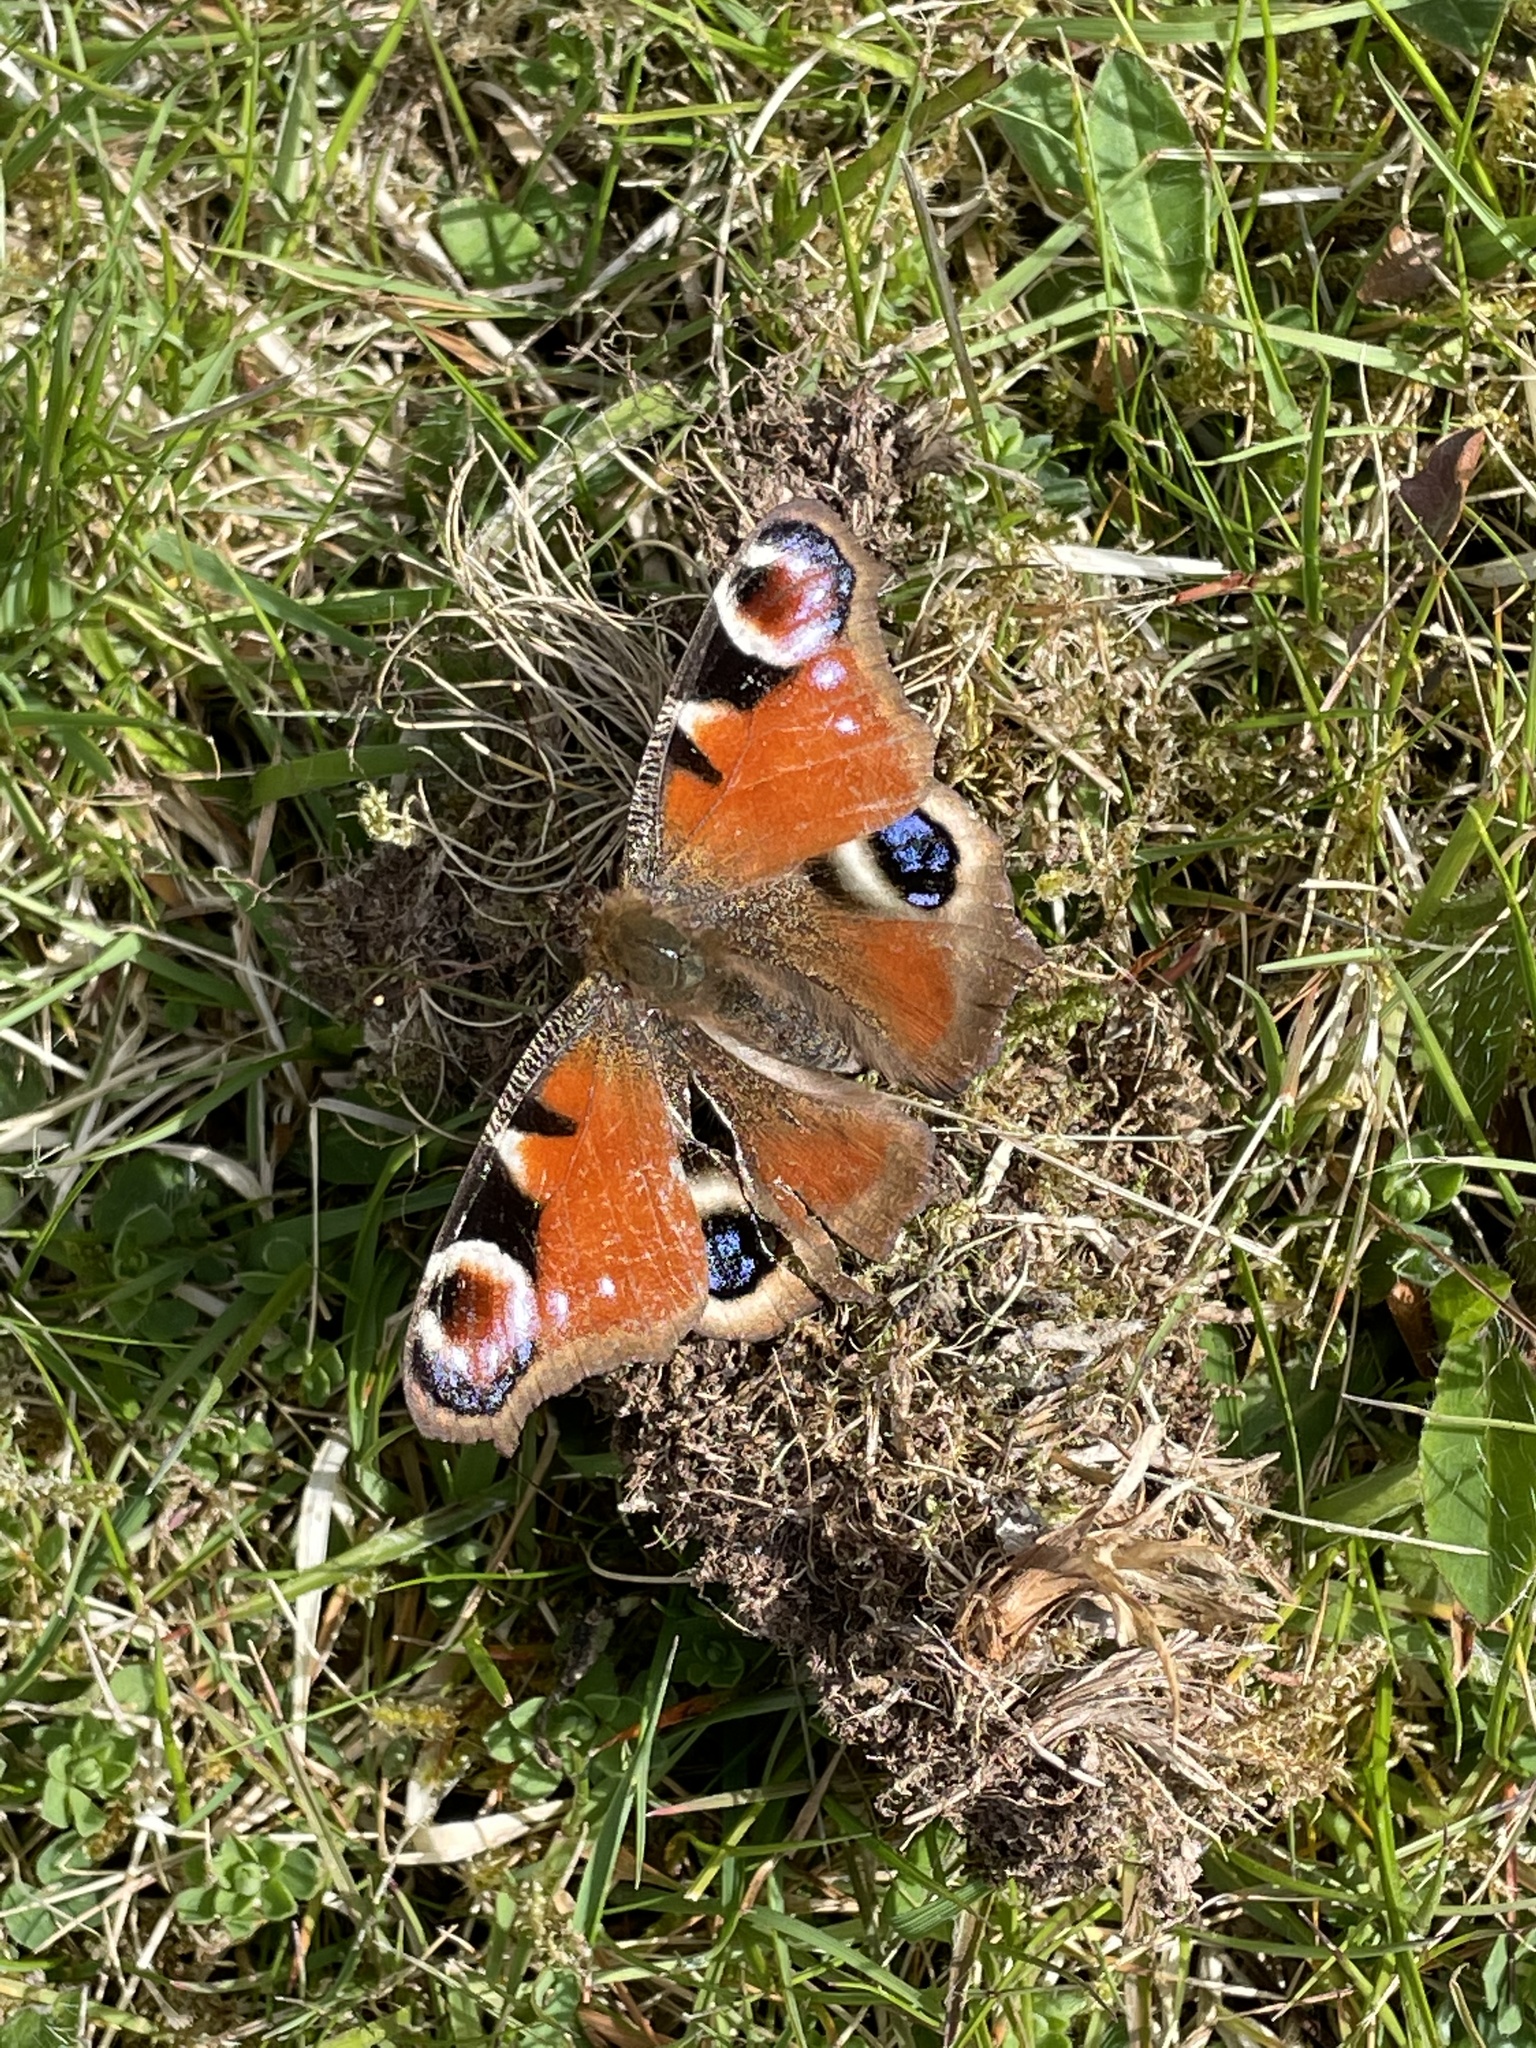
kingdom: Animalia
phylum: Arthropoda
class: Insecta
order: Lepidoptera
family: Nymphalidae
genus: Aglais
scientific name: Aglais io
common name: Peacock
